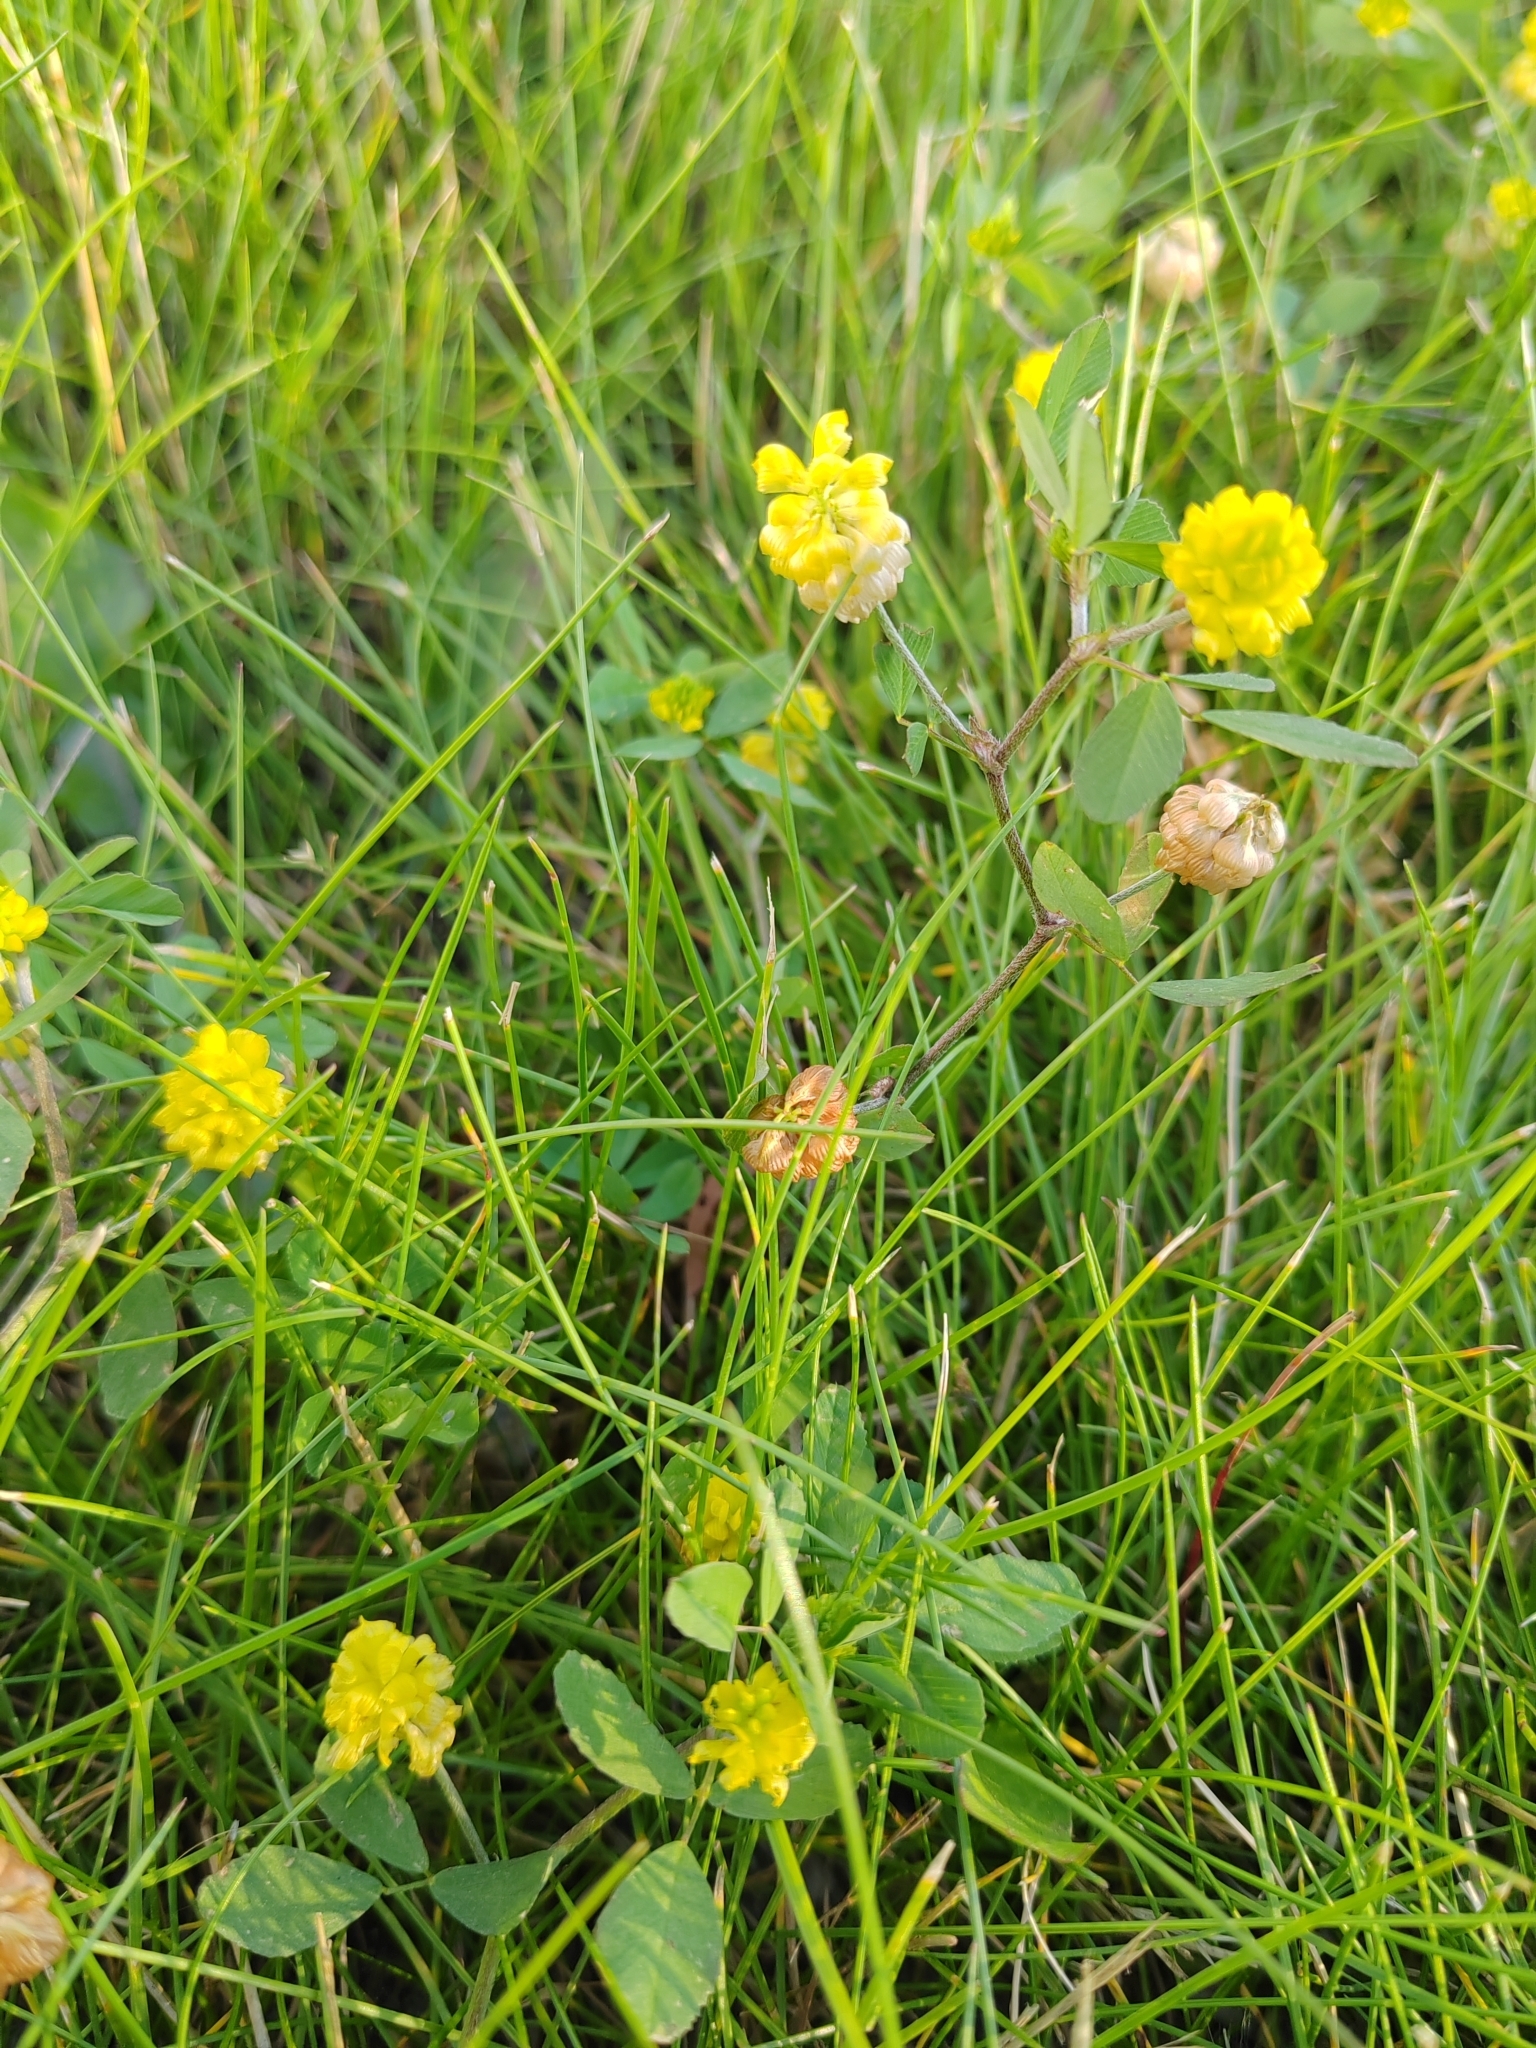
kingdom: Plantae
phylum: Tracheophyta
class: Magnoliopsida
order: Fabales
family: Fabaceae
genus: Trifolium
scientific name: Trifolium aureum
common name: Golden clover
